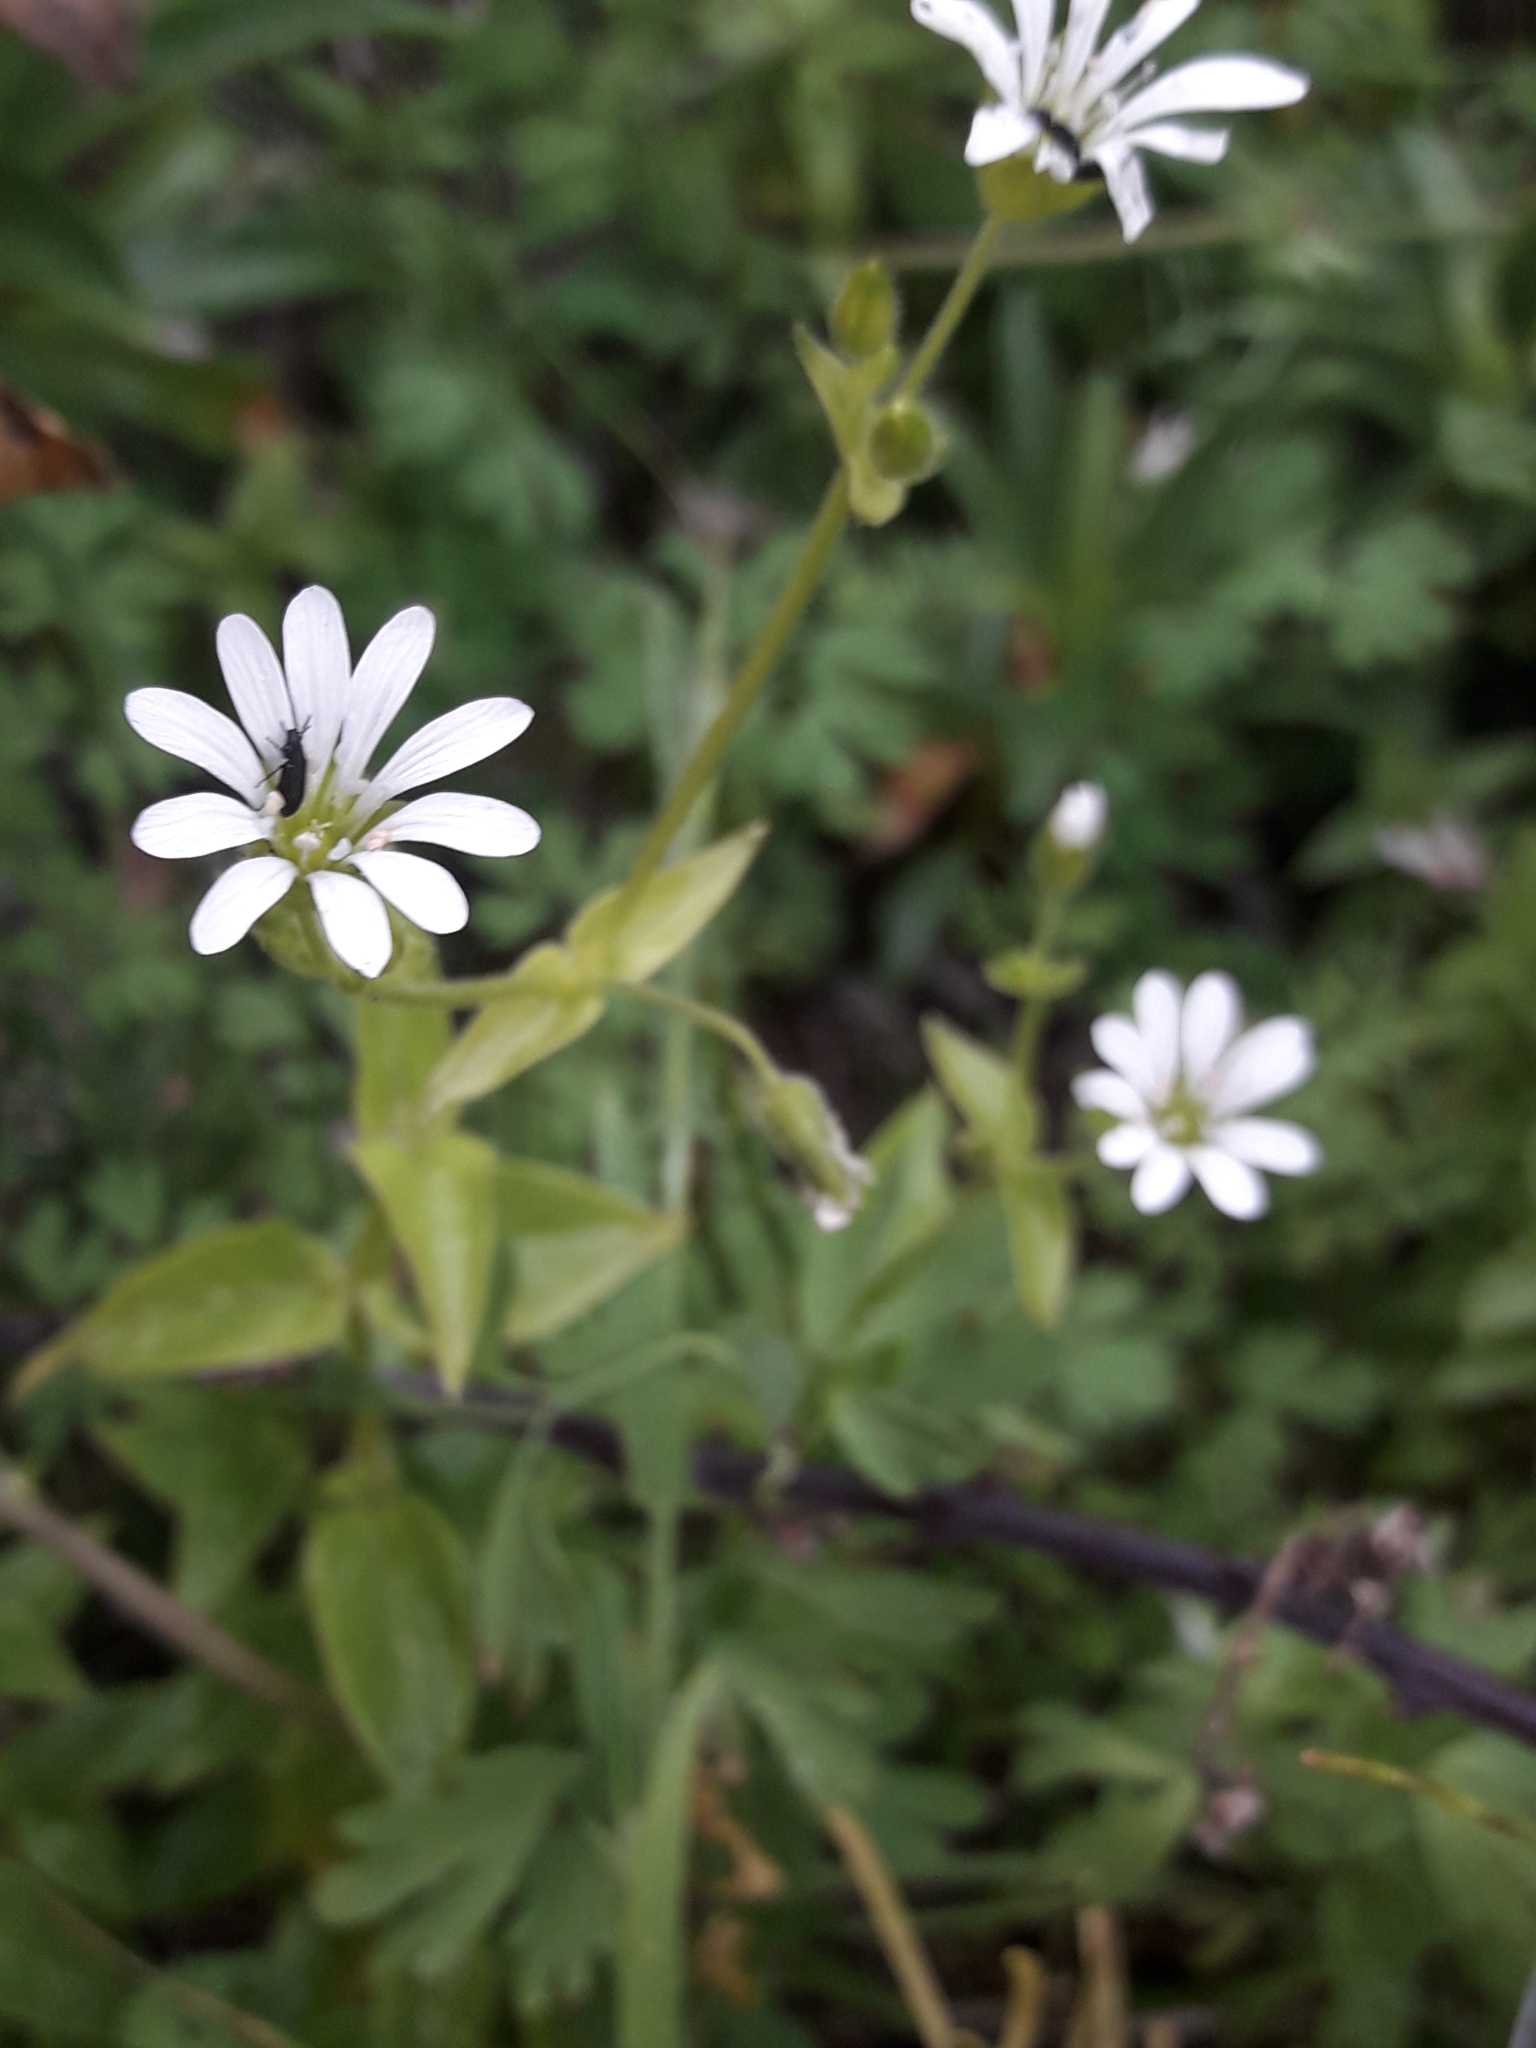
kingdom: Plantae
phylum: Tracheophyta
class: Magnoliopsida
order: Caryophyllales
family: Caryophyllaceae
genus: Stellaria
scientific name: Stellaria chilensis
